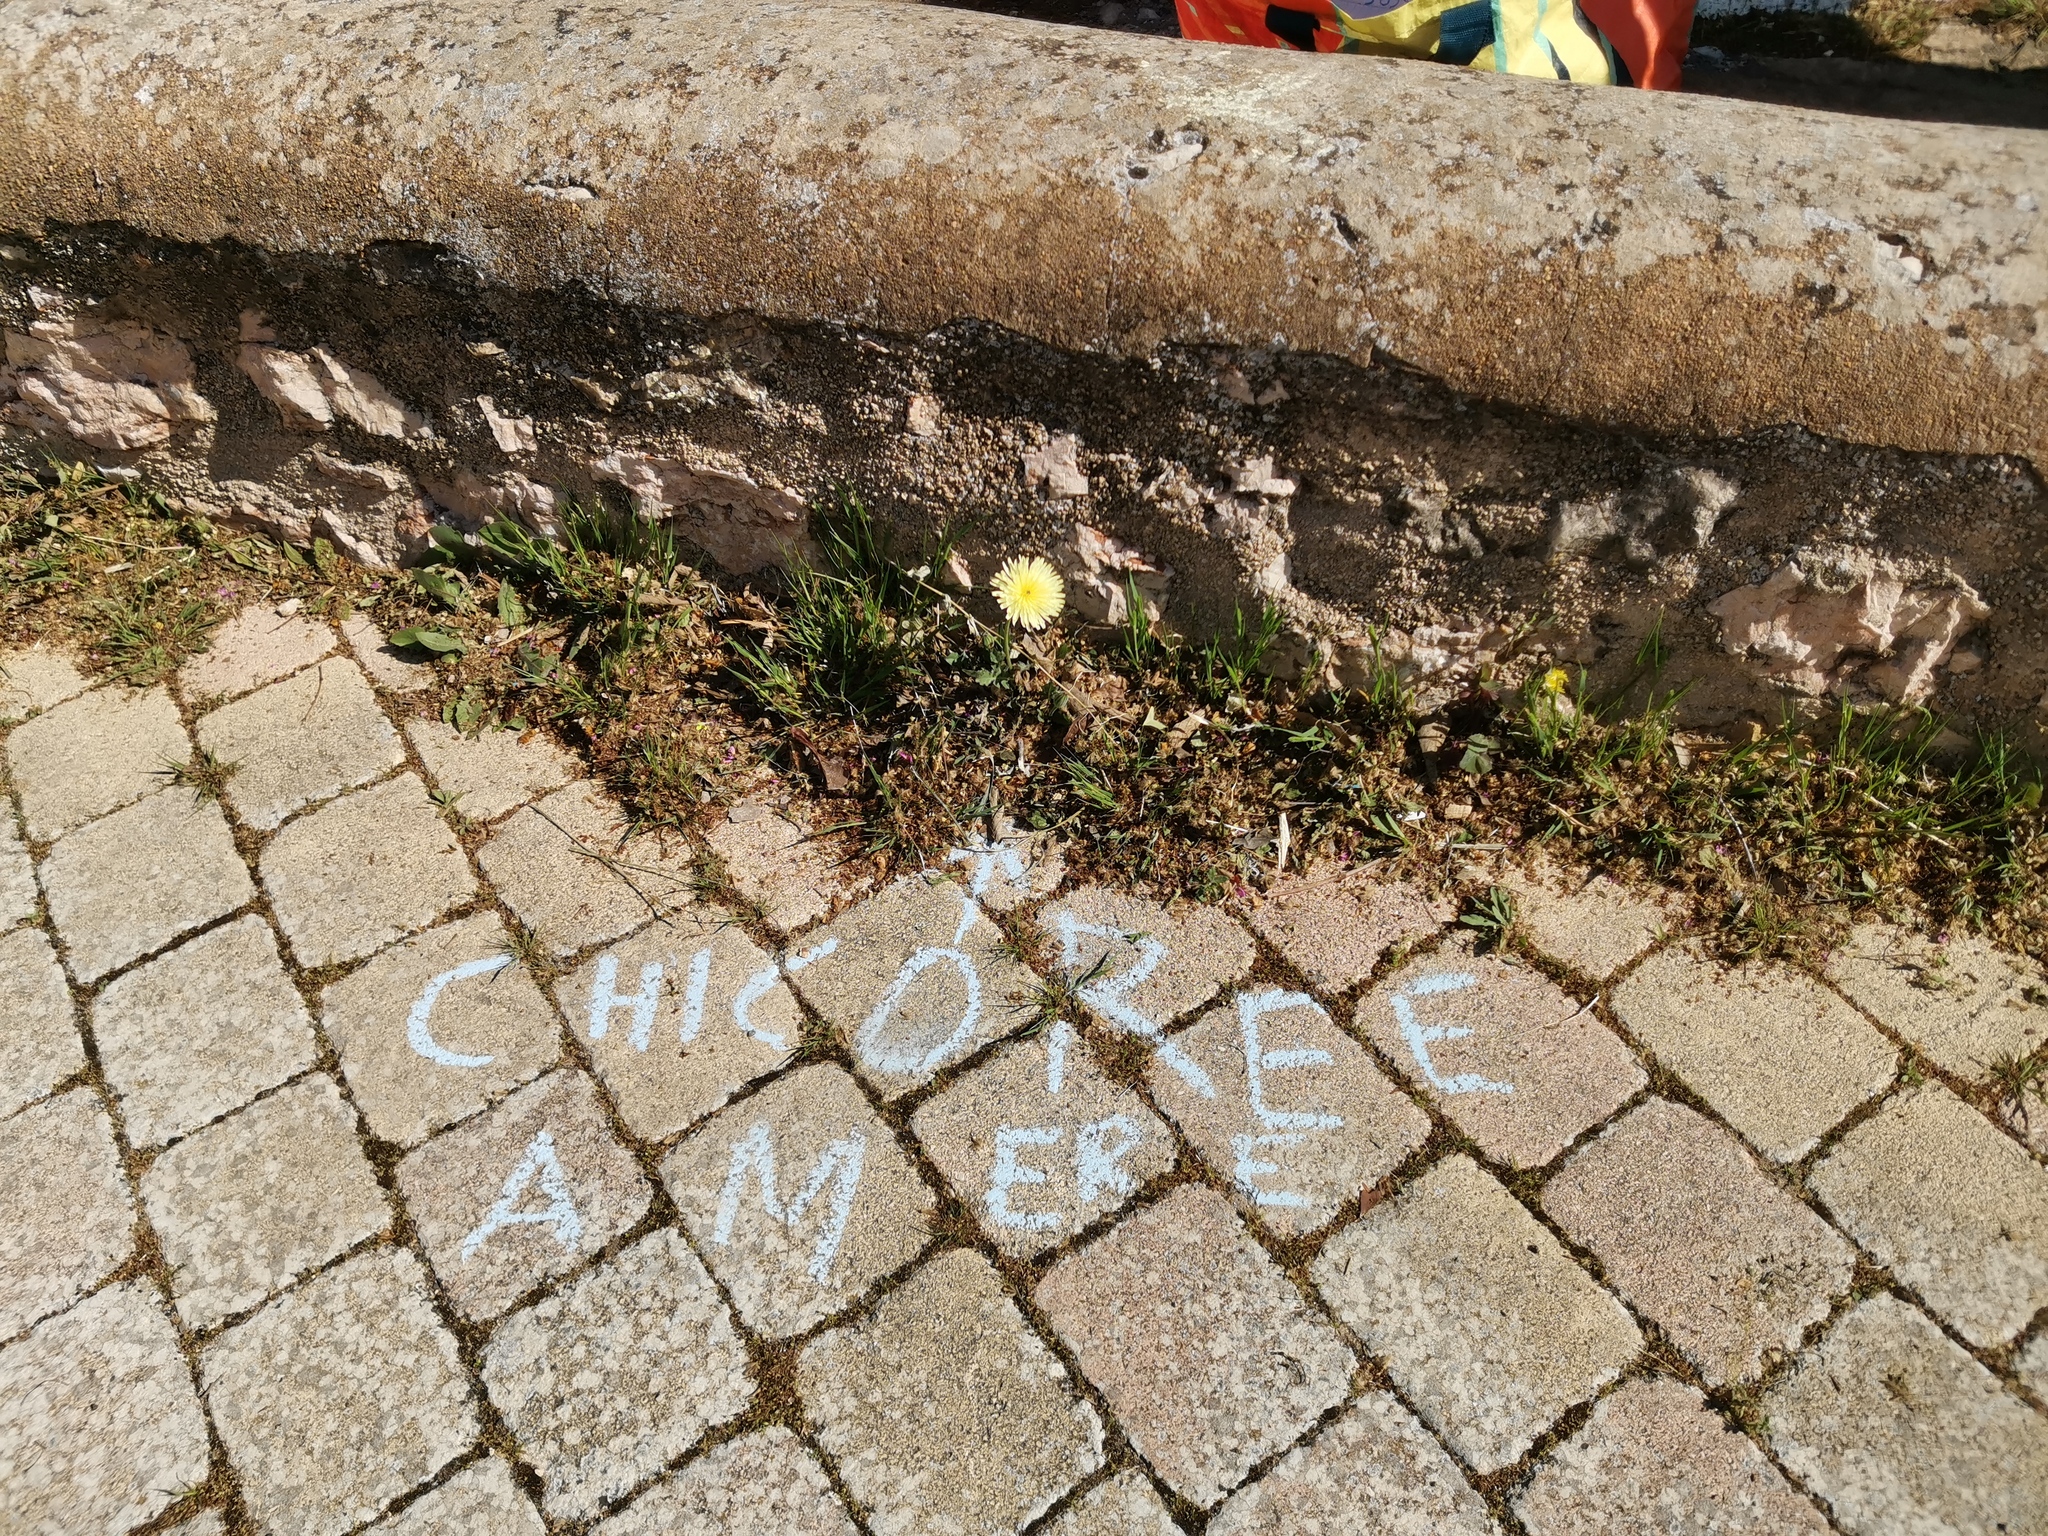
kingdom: Plantae
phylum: Tracheophyta
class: Magnoliopsida
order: Asterales
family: Asteraceae
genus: Urospermum
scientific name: Urospermum dalechampii
